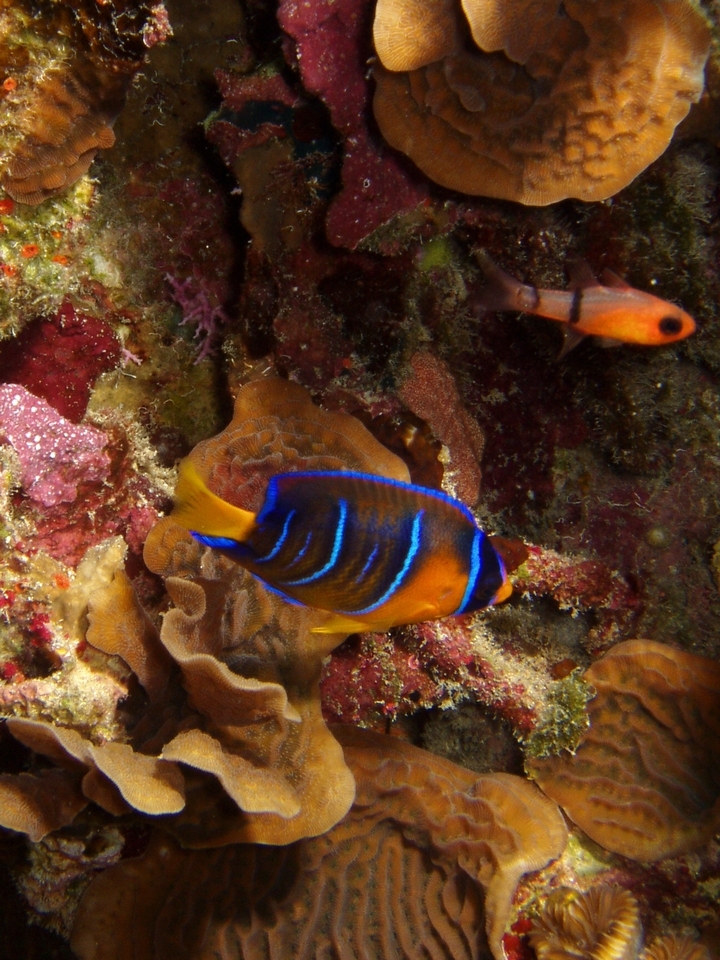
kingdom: Animalia
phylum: Chordata
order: Perciformes
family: Pomacanthidae
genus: Holacanthus
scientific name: Holacanthus ciliaris
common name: Queen angelfish
